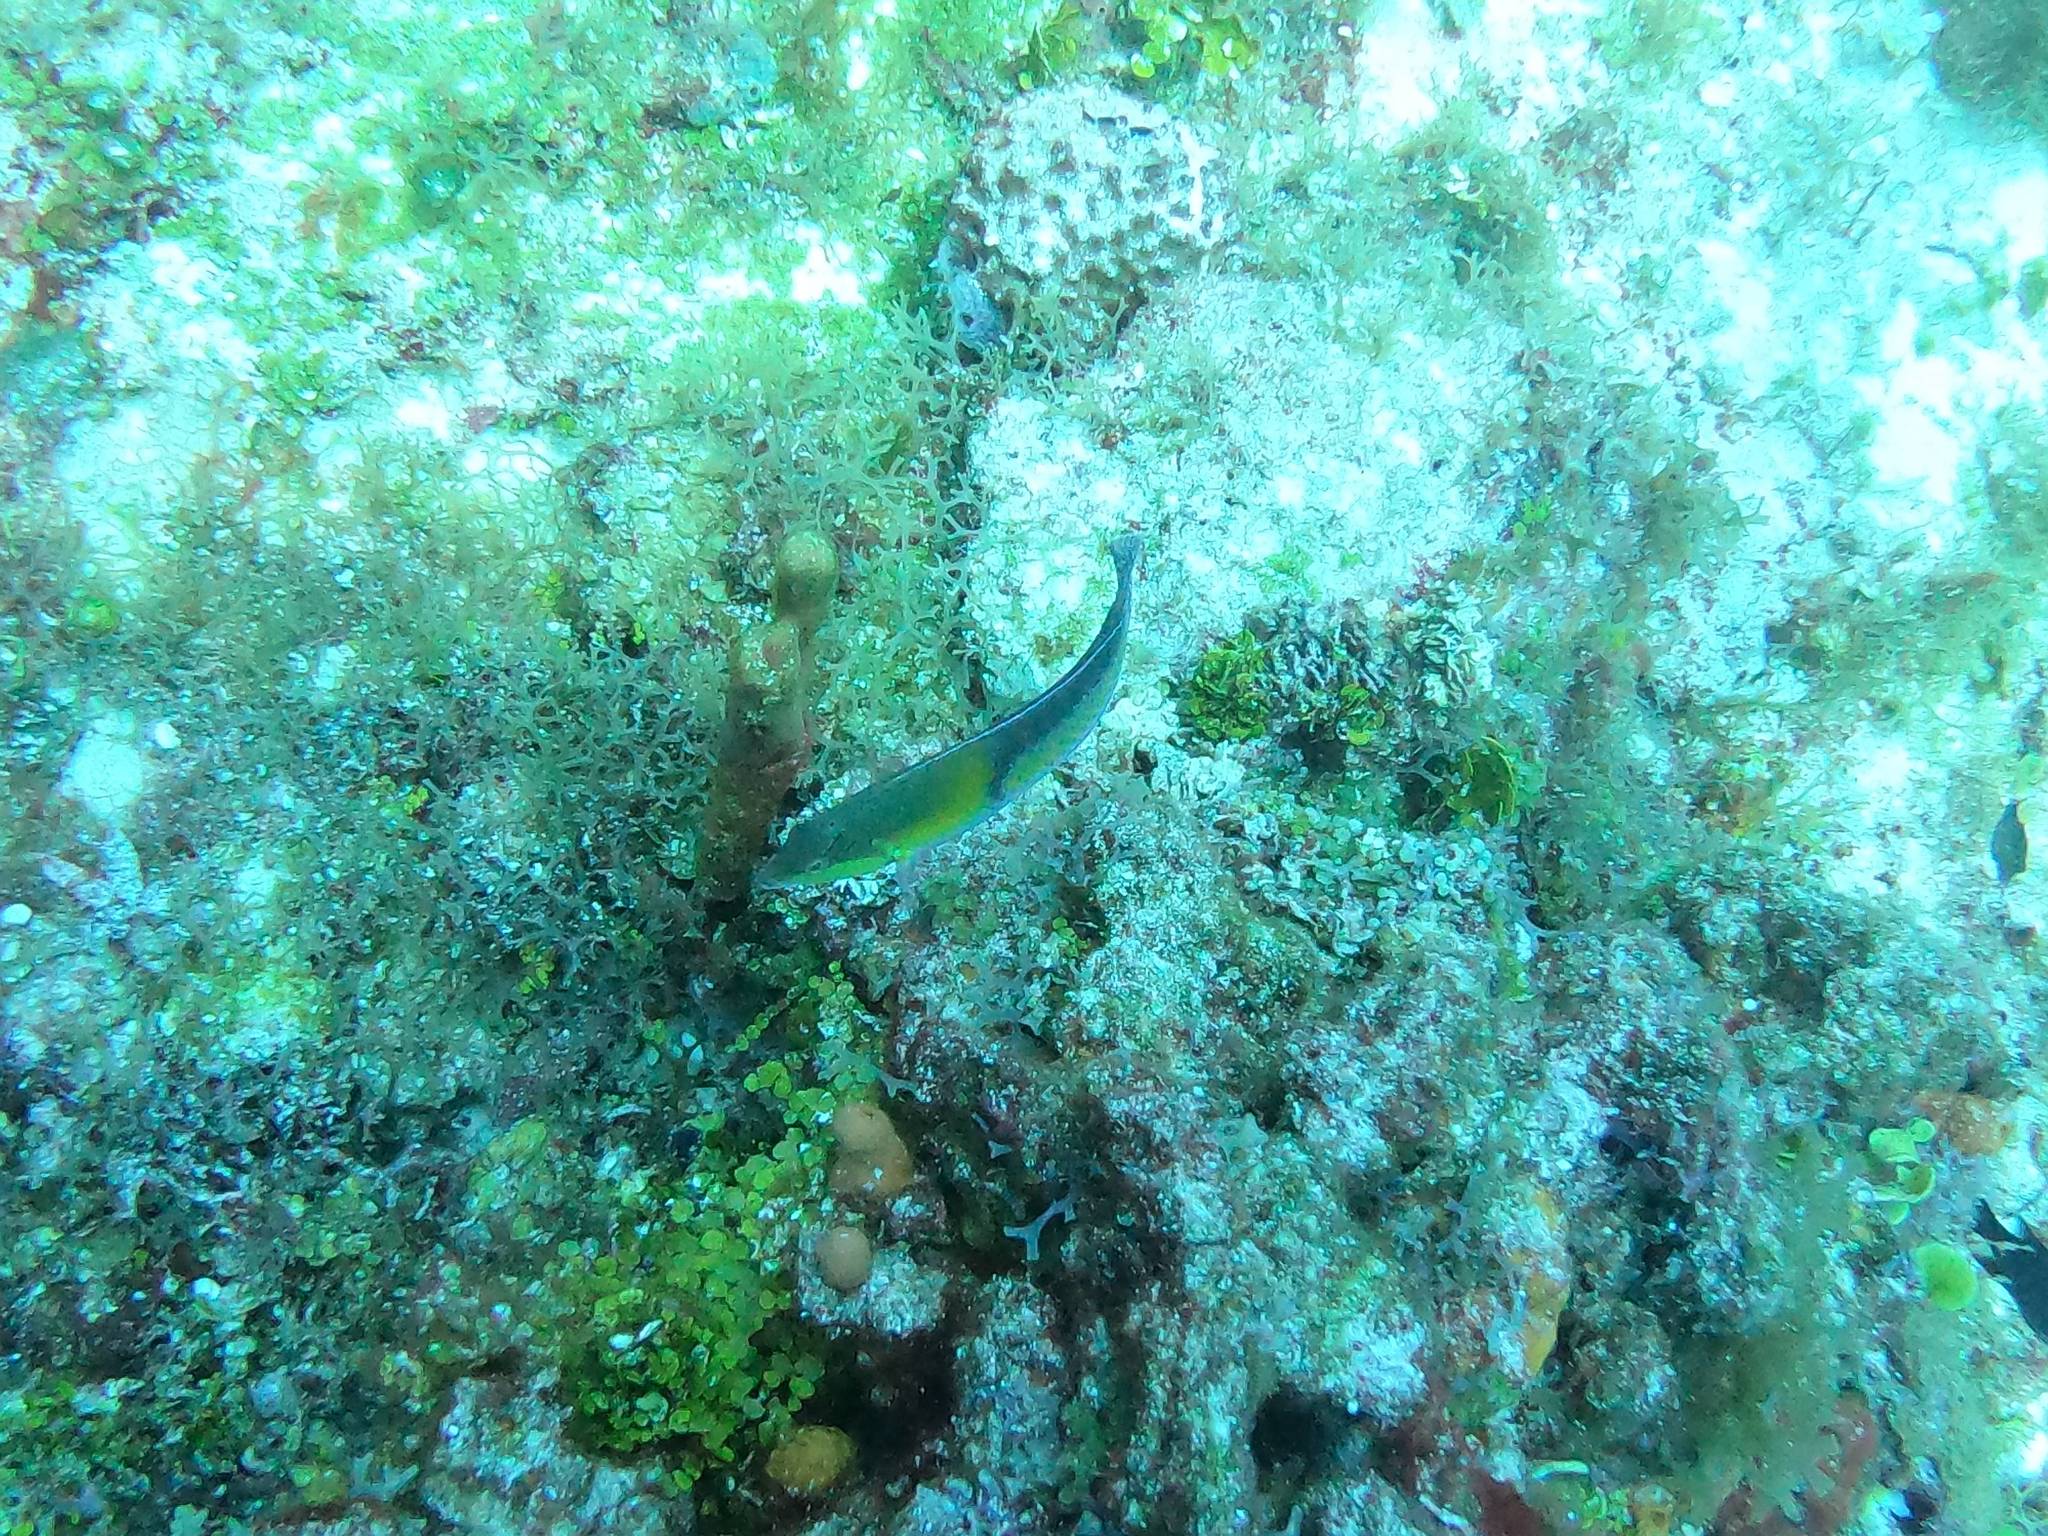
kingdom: Animalia
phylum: Chordata
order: Perciformes
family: Labridae
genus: Halichoeres
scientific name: Halichoeres garnoti
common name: Yellowhead wrasse
